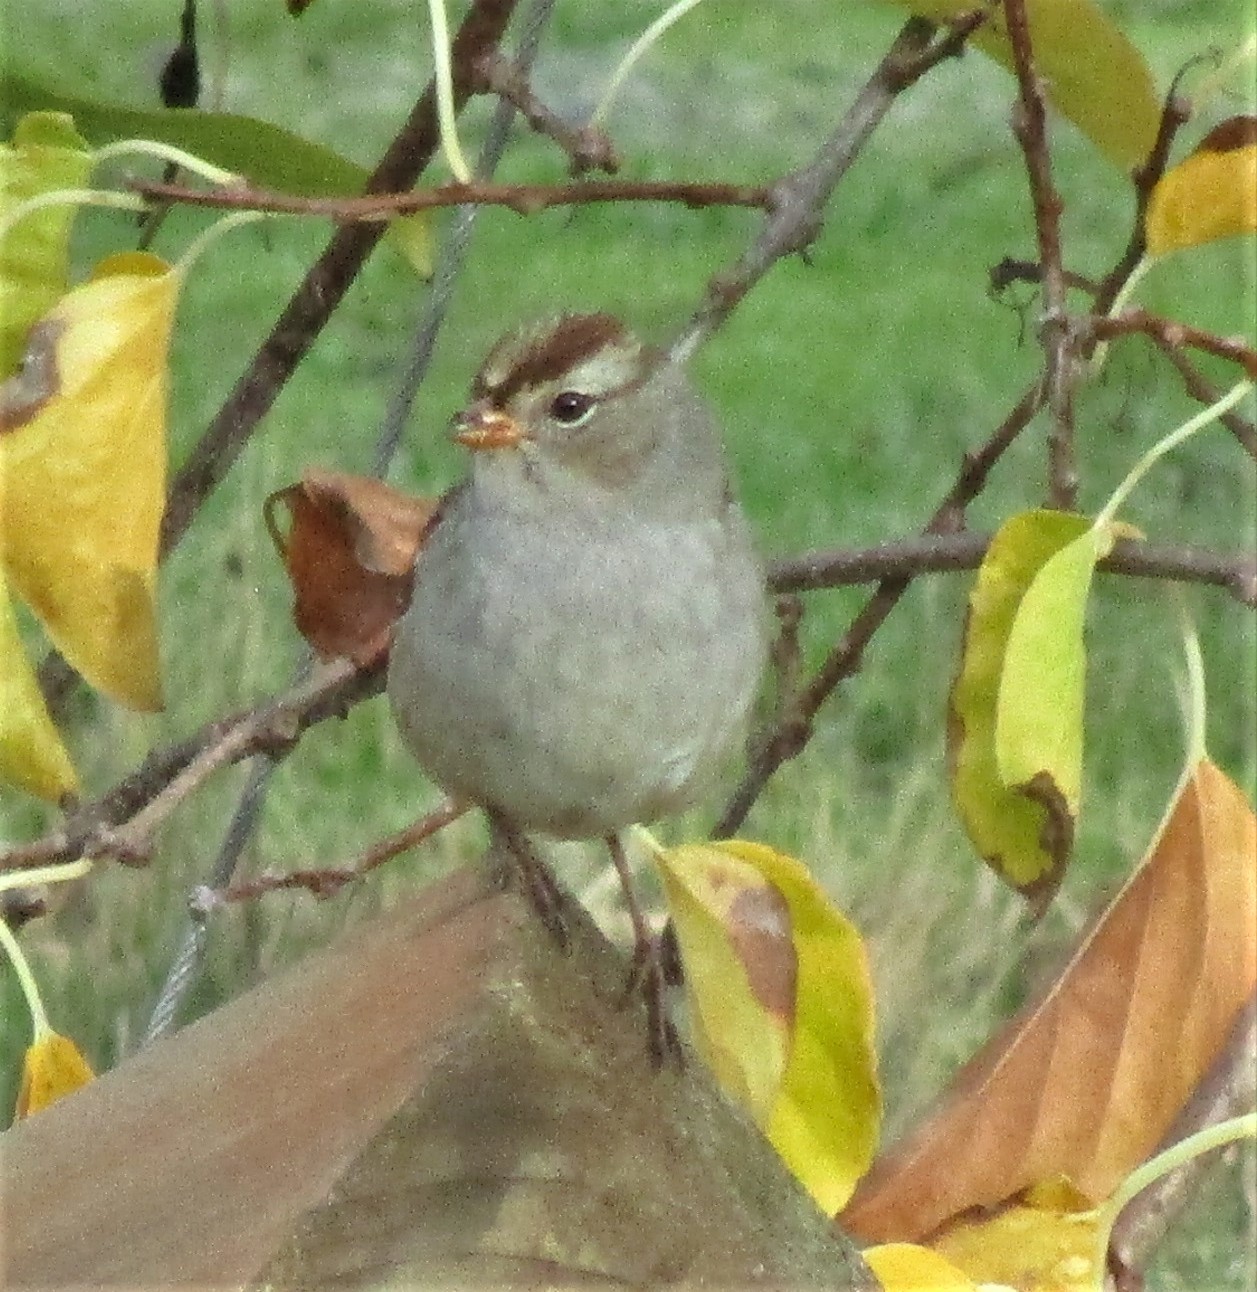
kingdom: Animalia
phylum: Chordata
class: Aves
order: Passeriformes
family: Passerellidae
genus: Zonotrichia
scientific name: Zonotrichia leucophrys
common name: White-crowned sparrow
